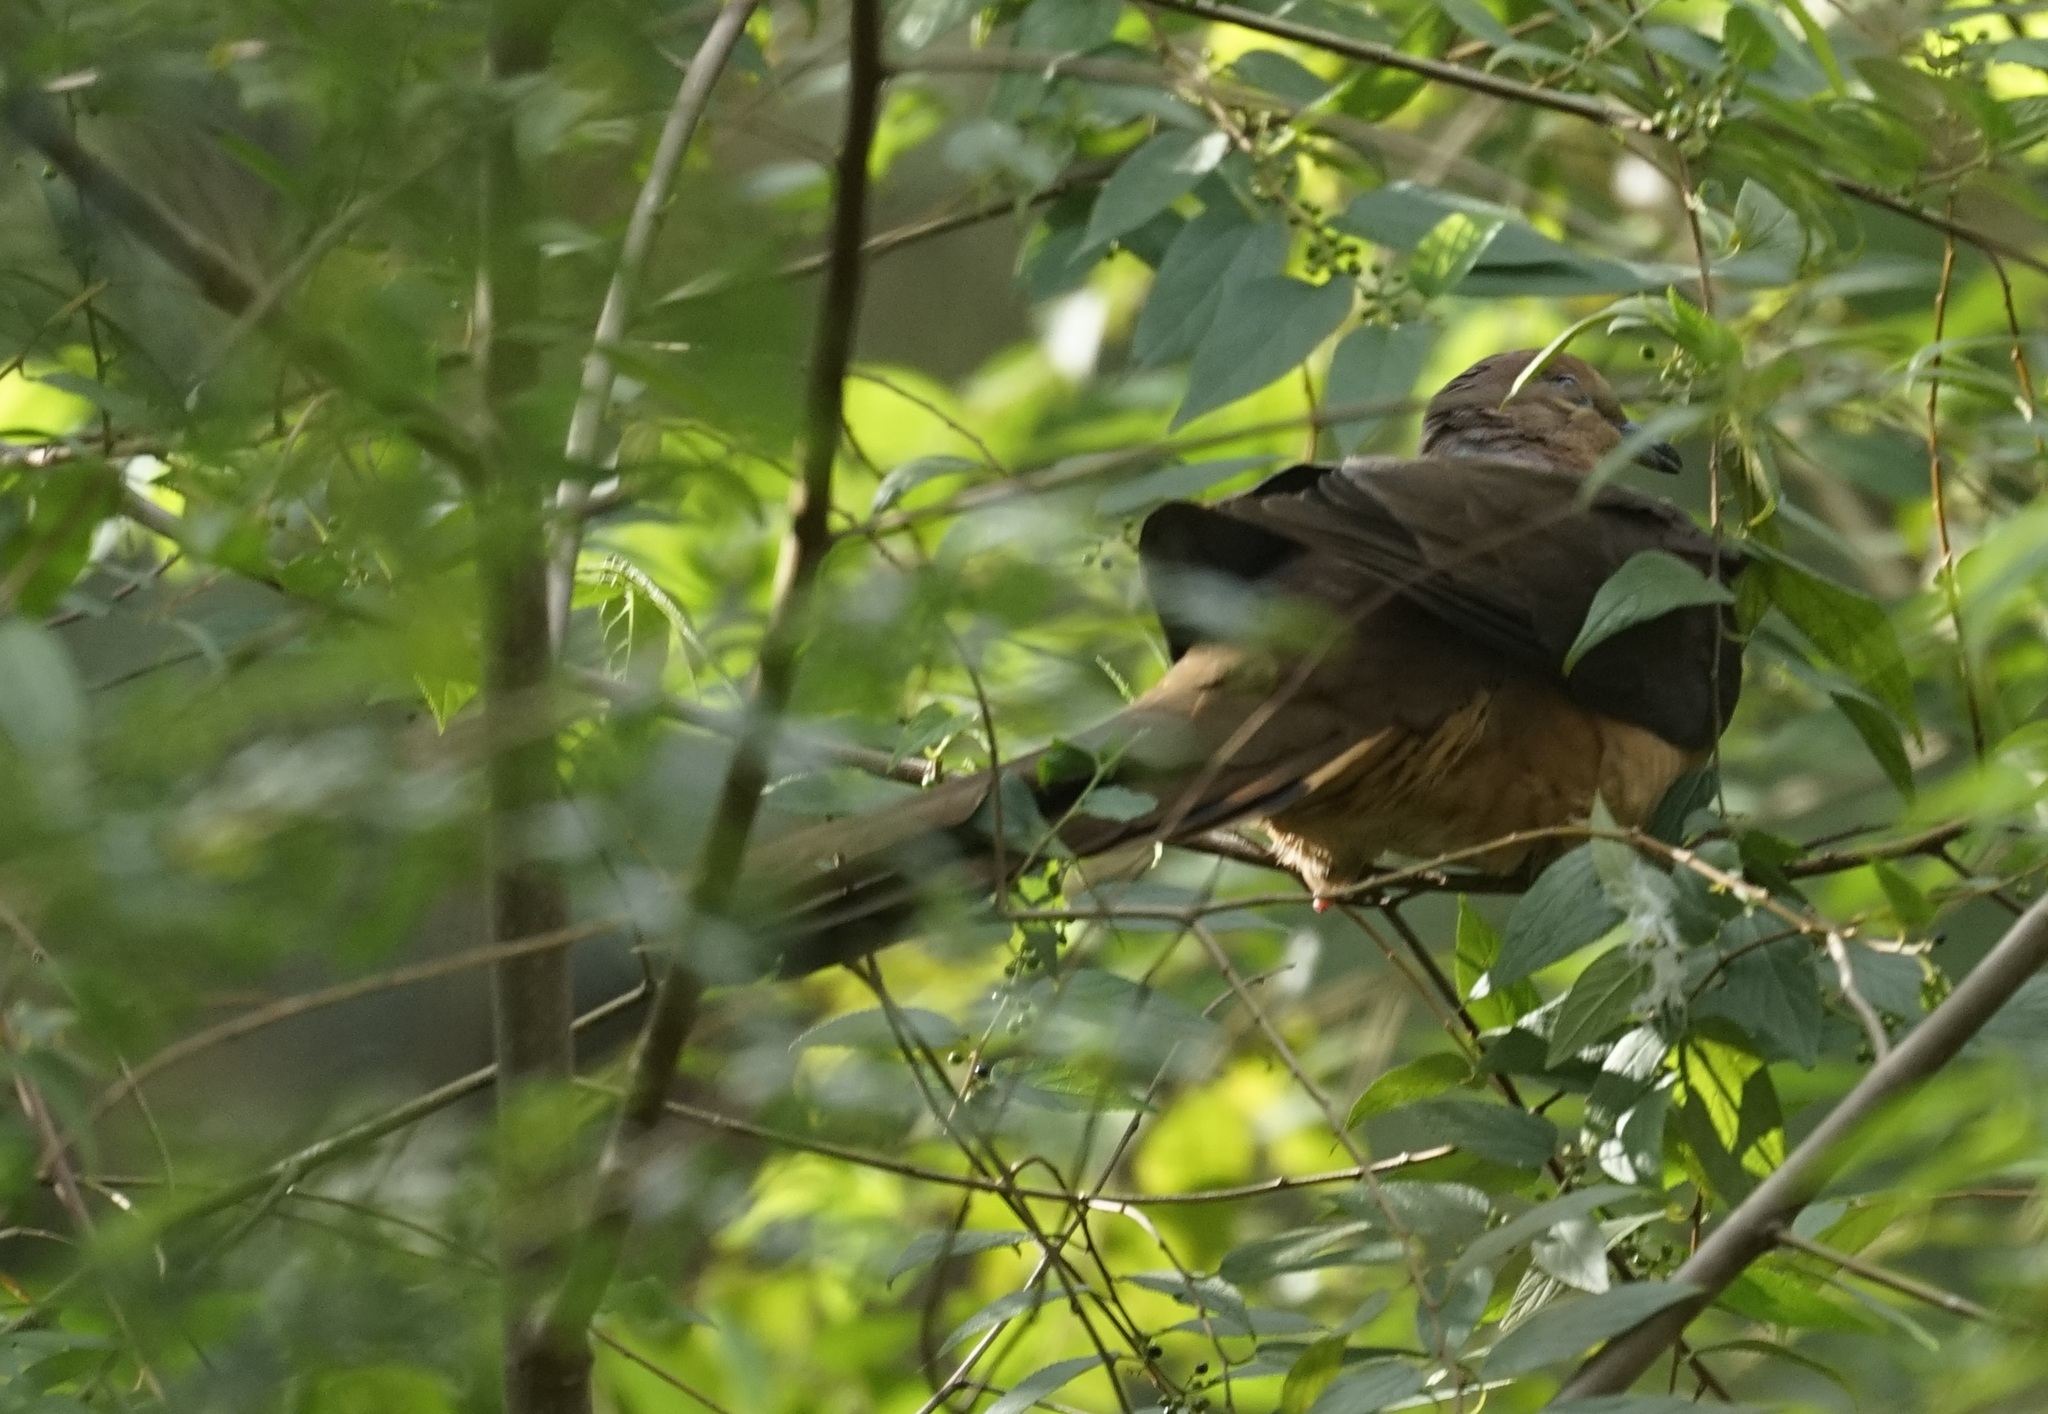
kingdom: Animalia
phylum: Chordata
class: Aves
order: Columbiformes
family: Columbidae
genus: Macropygia
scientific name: Macropygia phasianella
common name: Brown cuckoo-dove
